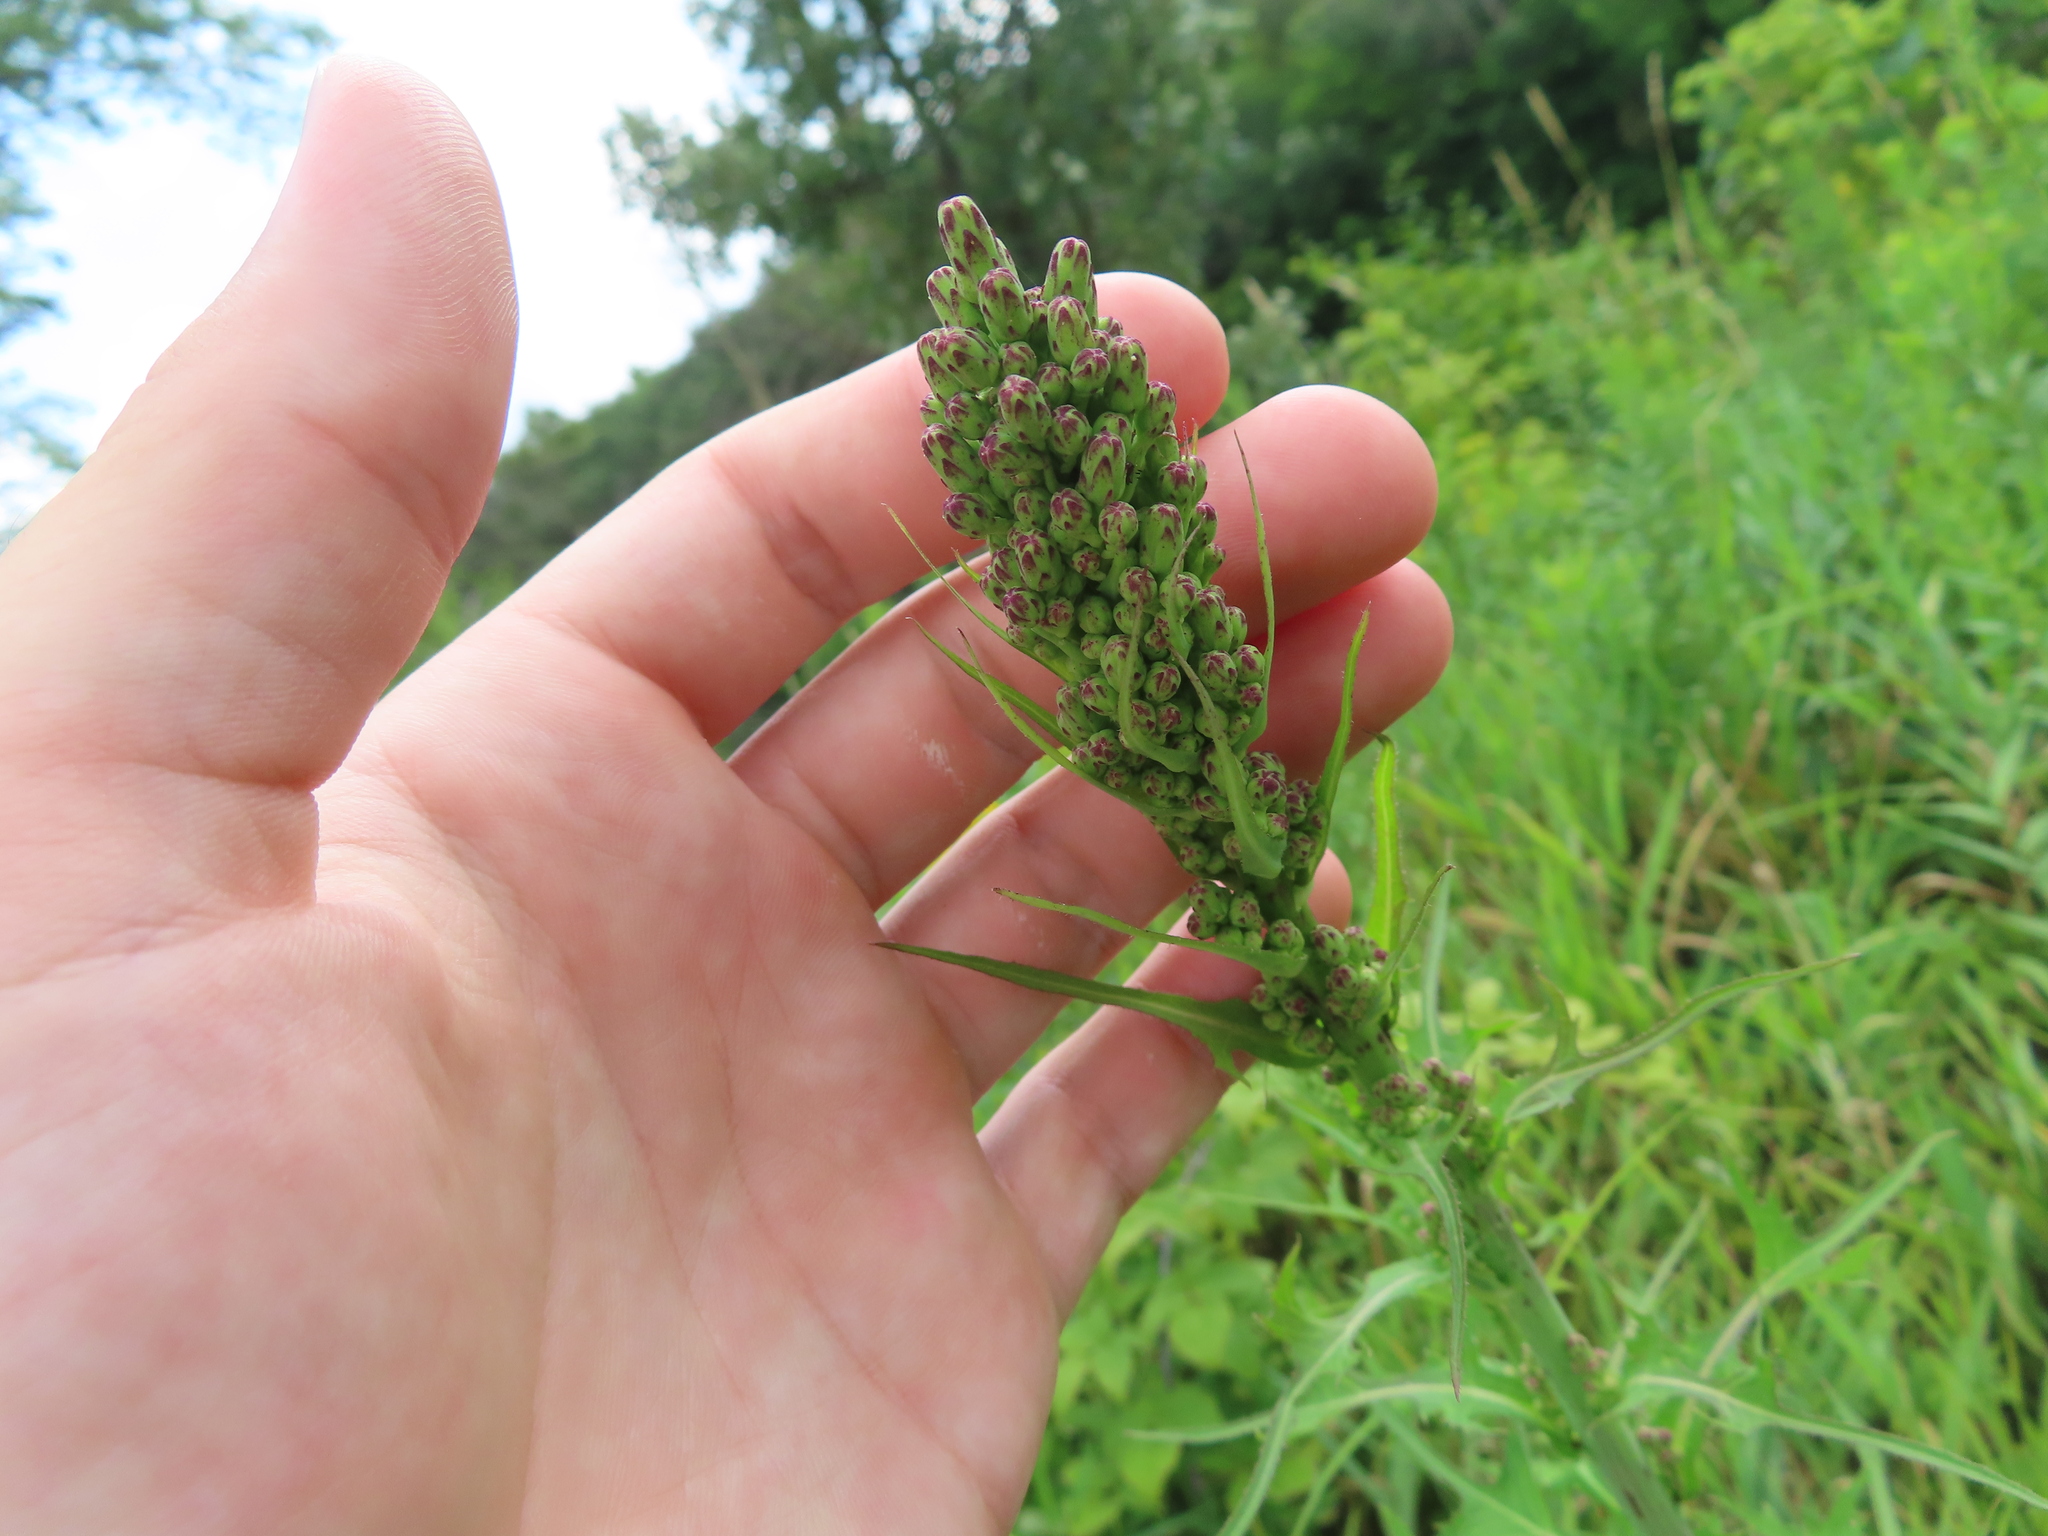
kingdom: Plantae
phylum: Tracheophyta
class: Magnoliopsida
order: Asterales
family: Asteraceae
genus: Lactuca
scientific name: Lactuca canadensis
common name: Canada lettuce
